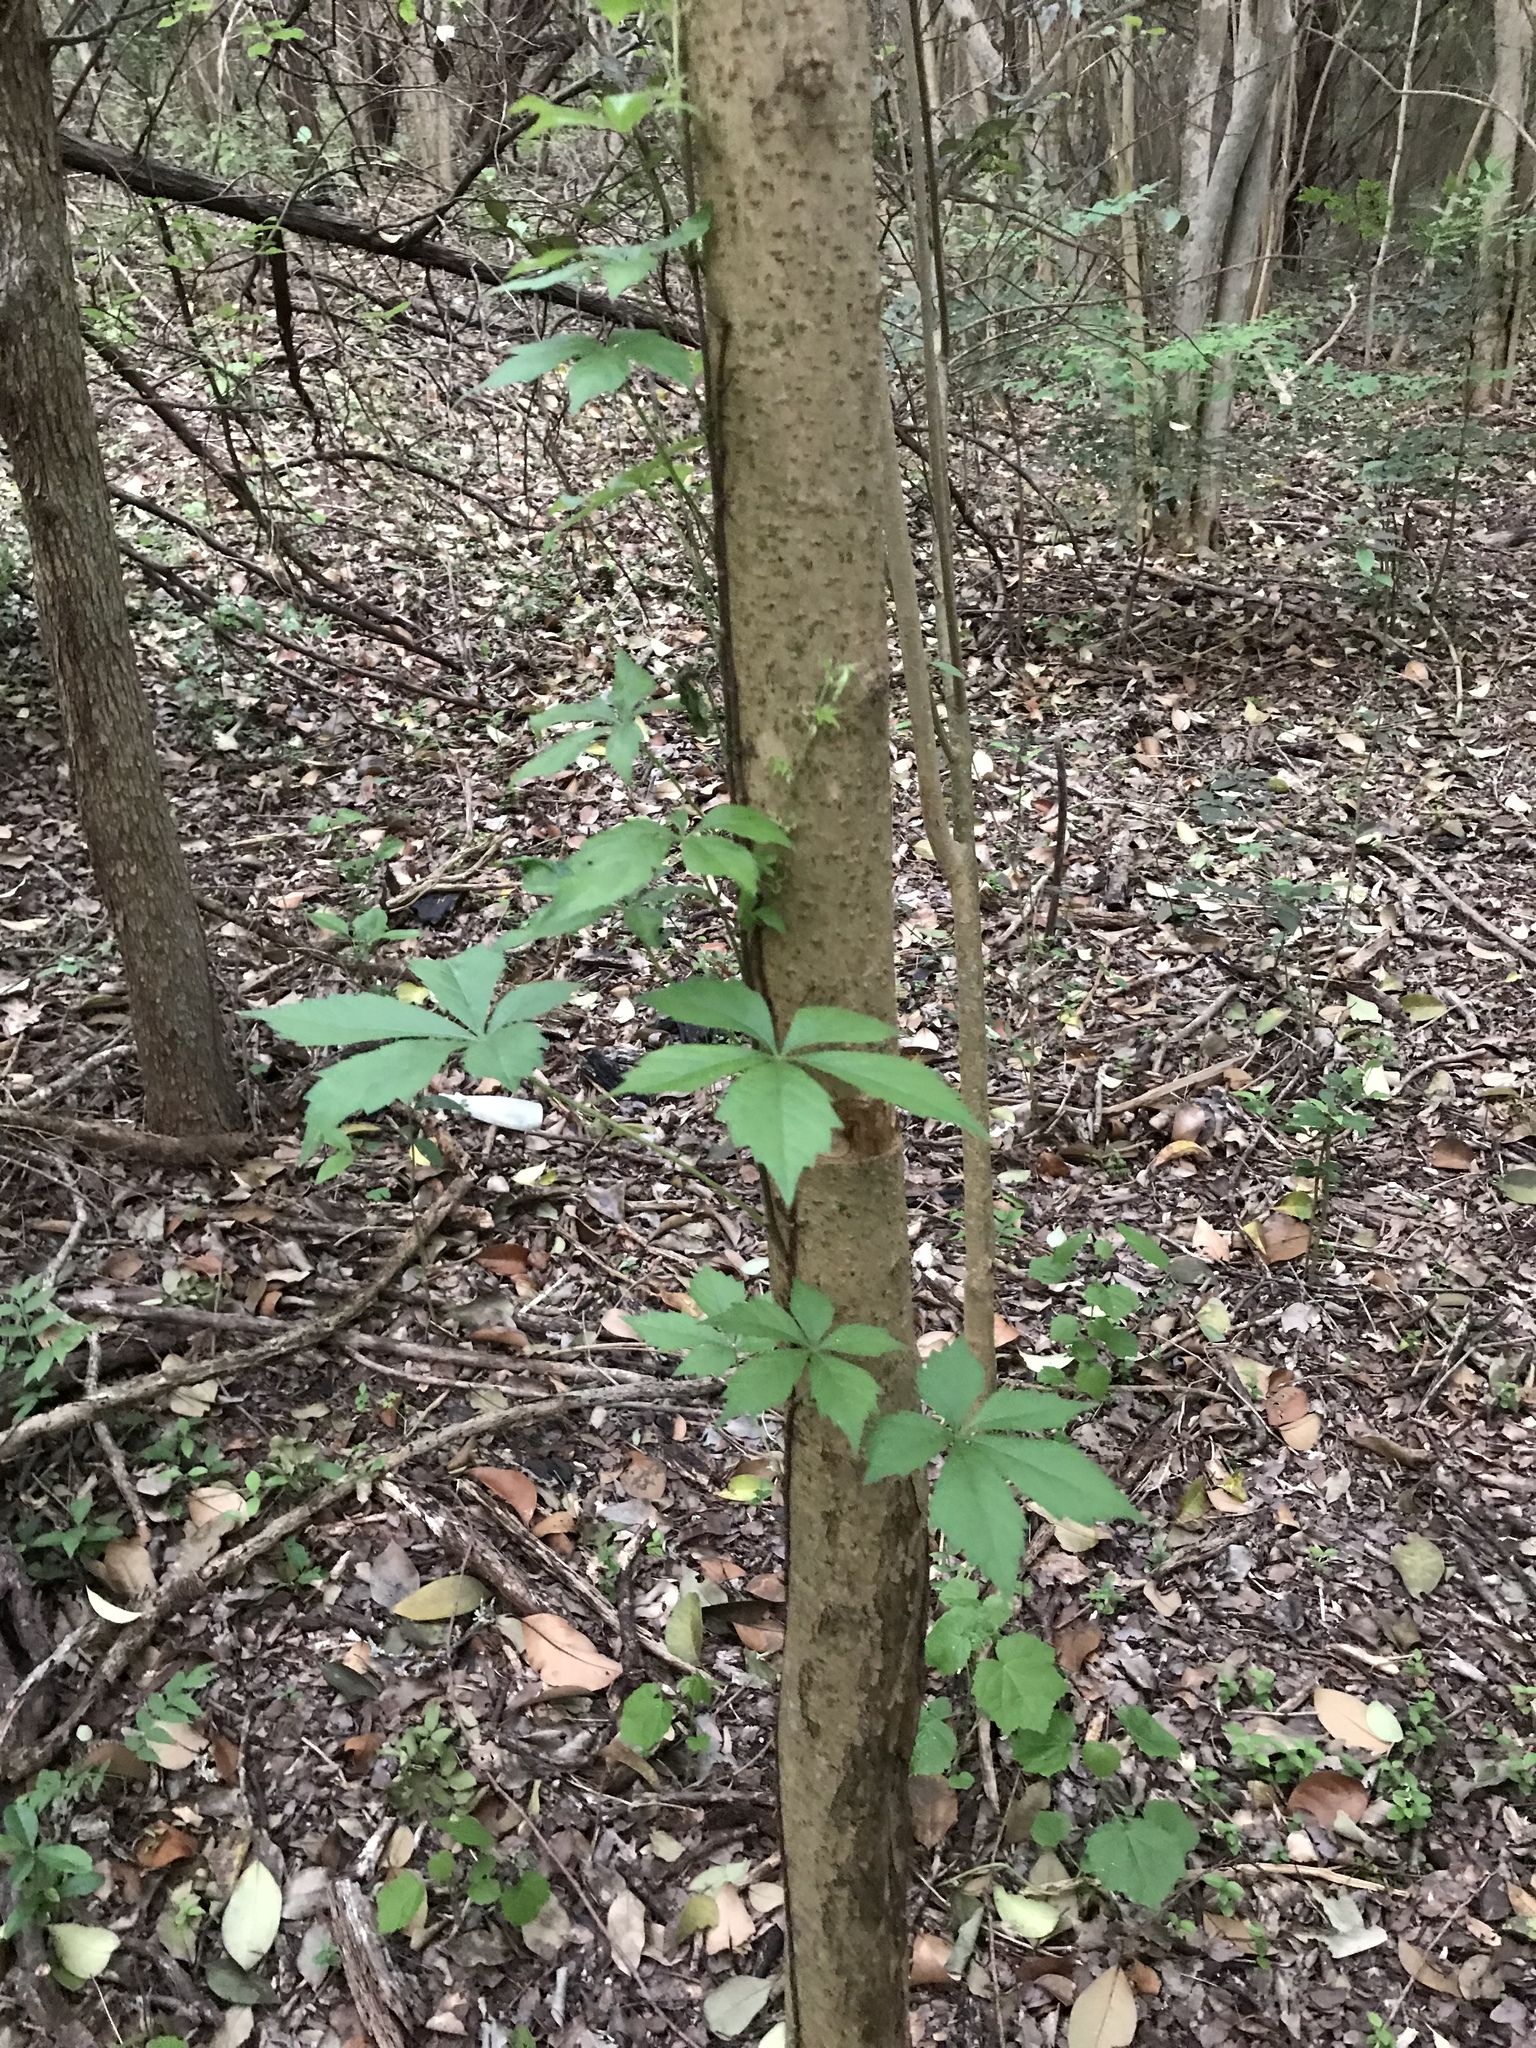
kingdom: Plantae
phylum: Tracheophyta
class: Magnoliopsida
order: Vitales
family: Vitaceae
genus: Parthenocissus
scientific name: Parthenocissus quinquefolia
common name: Virginia-creeper
